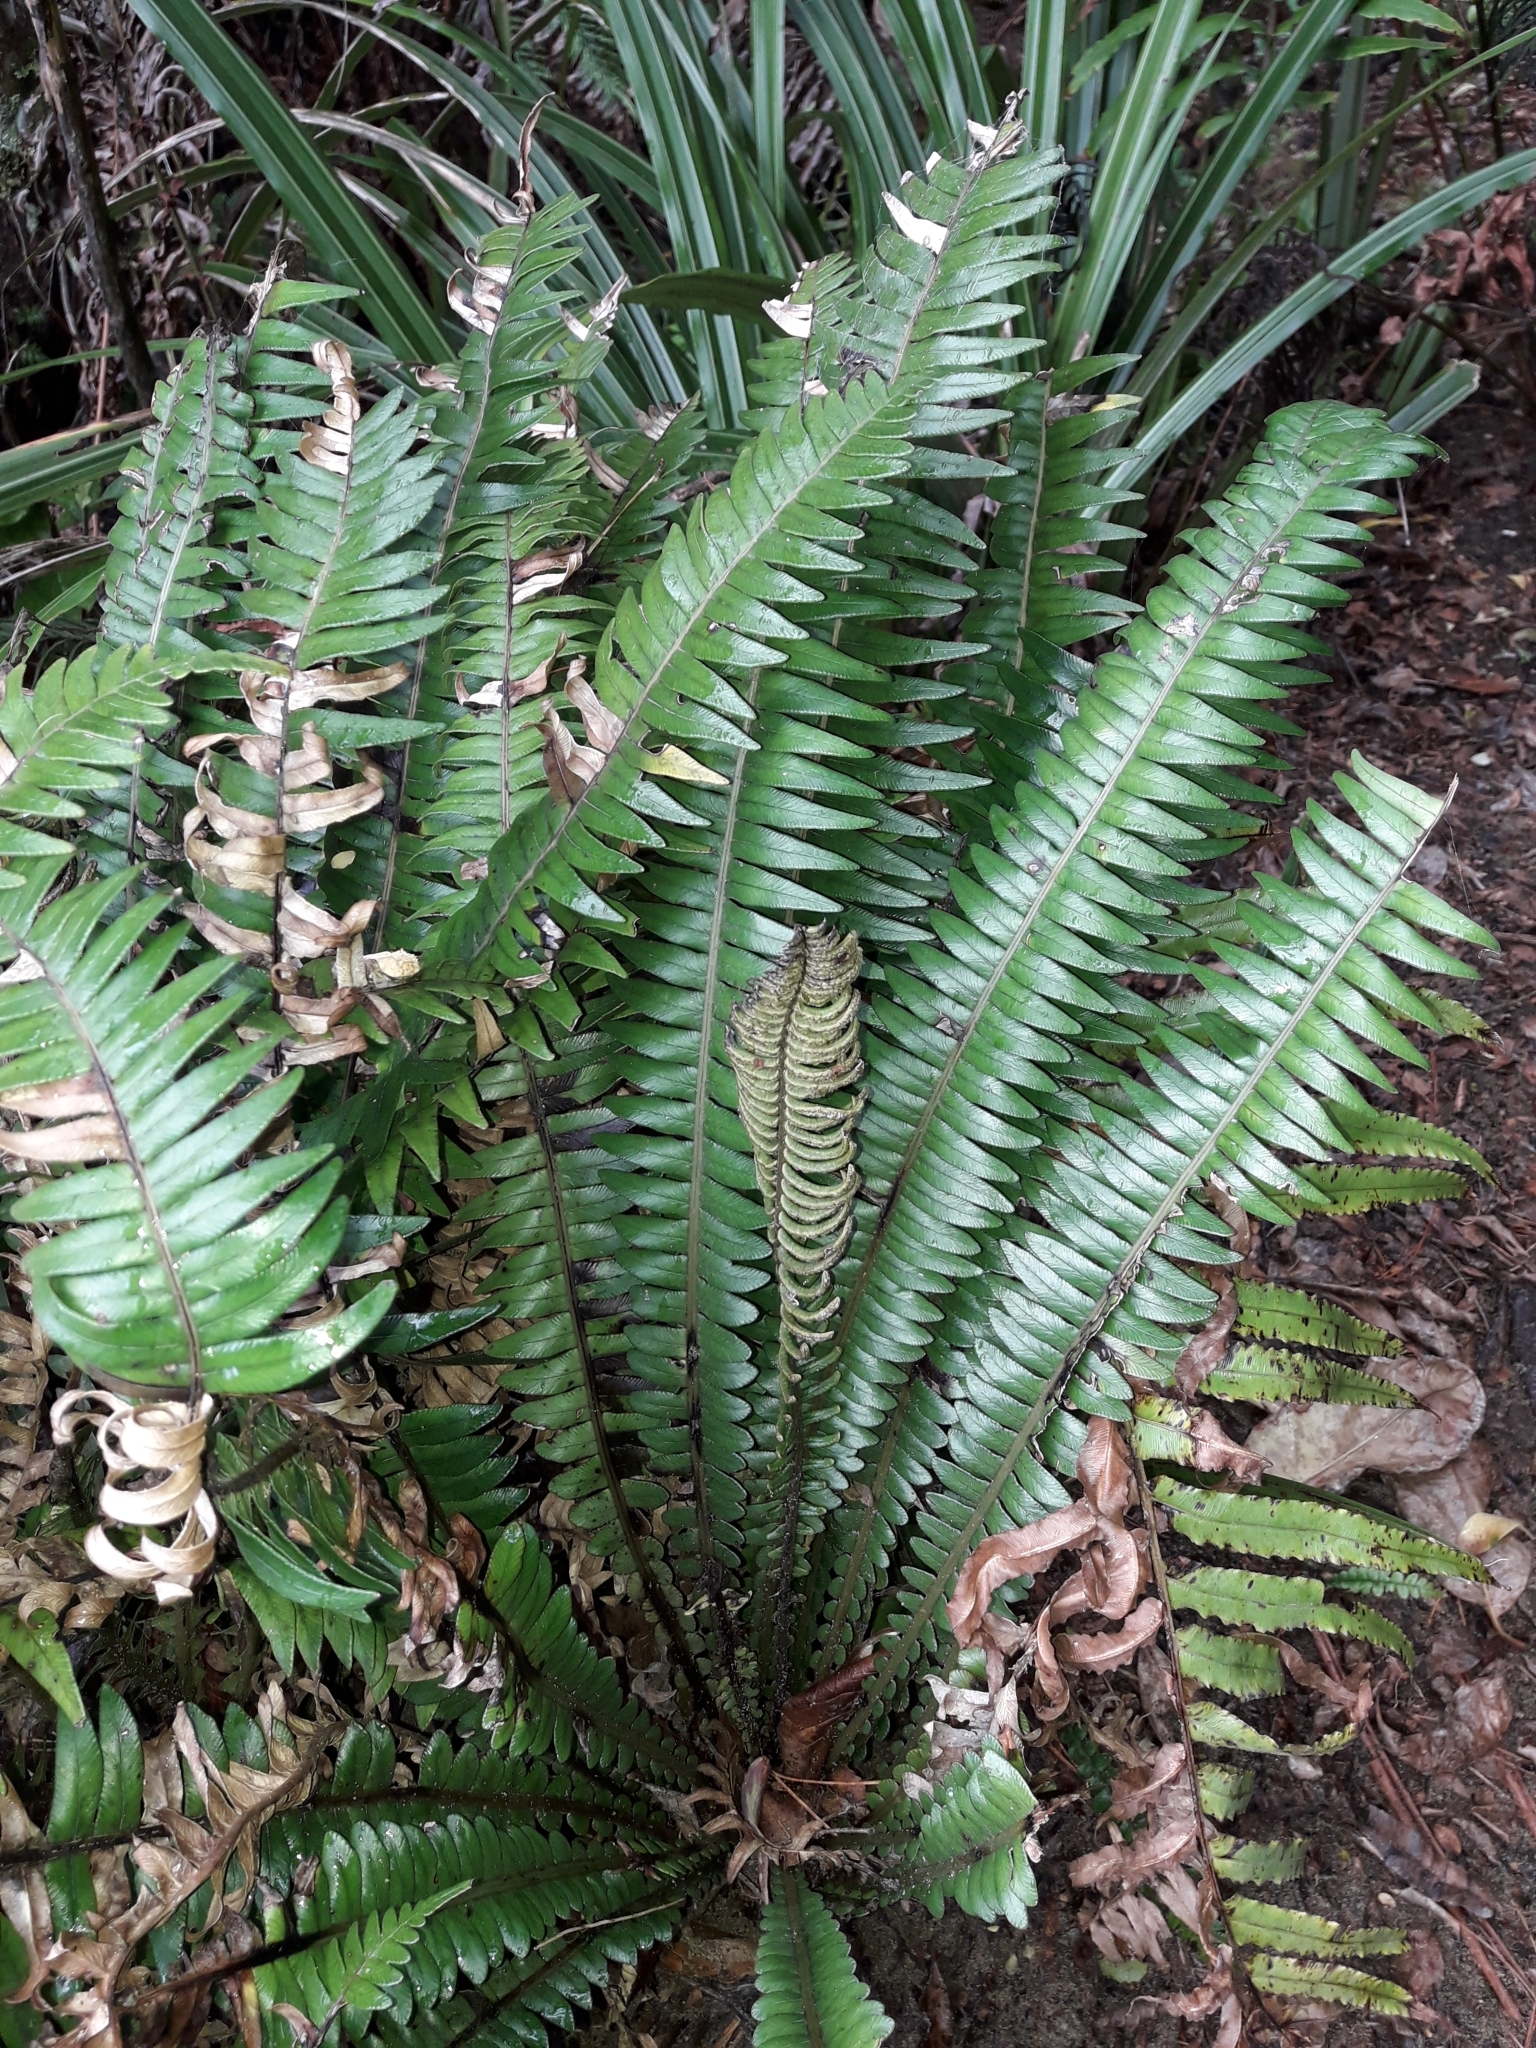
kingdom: Plantae
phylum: Tracheophyta
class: Polypodiopsida
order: Polypodiales
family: Blechnaceae
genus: Austroblechnum
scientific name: Austroblechnum durum
